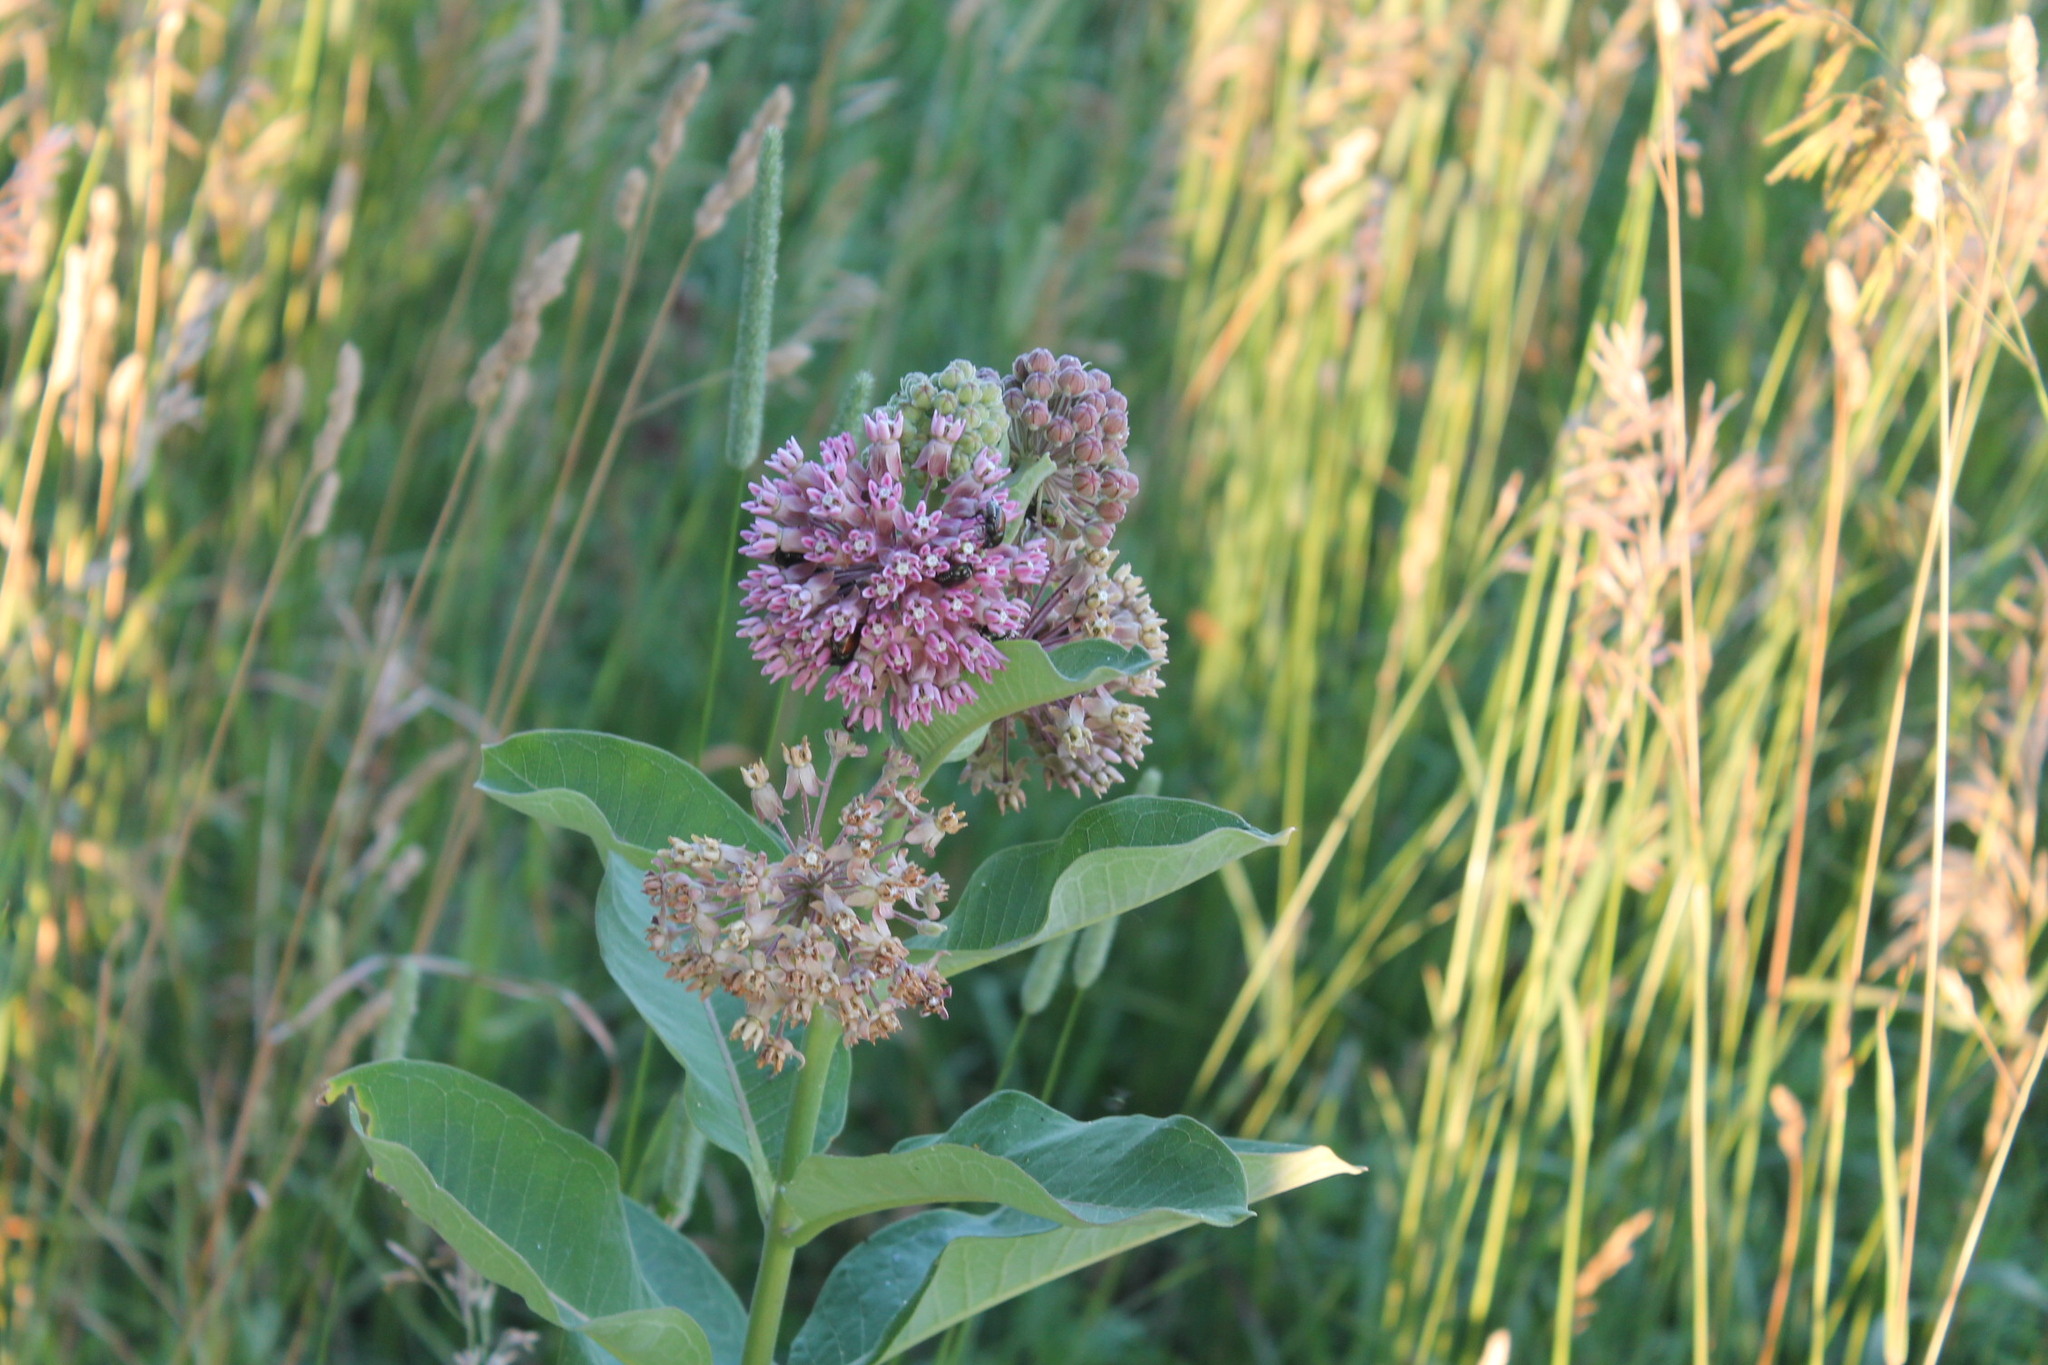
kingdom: Plantae
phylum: Tracheophyta
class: Magnoliopsida
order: Gentianales
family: Apocynaceae
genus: Asclepias
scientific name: Asclepias syriaca
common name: Common milkweed
